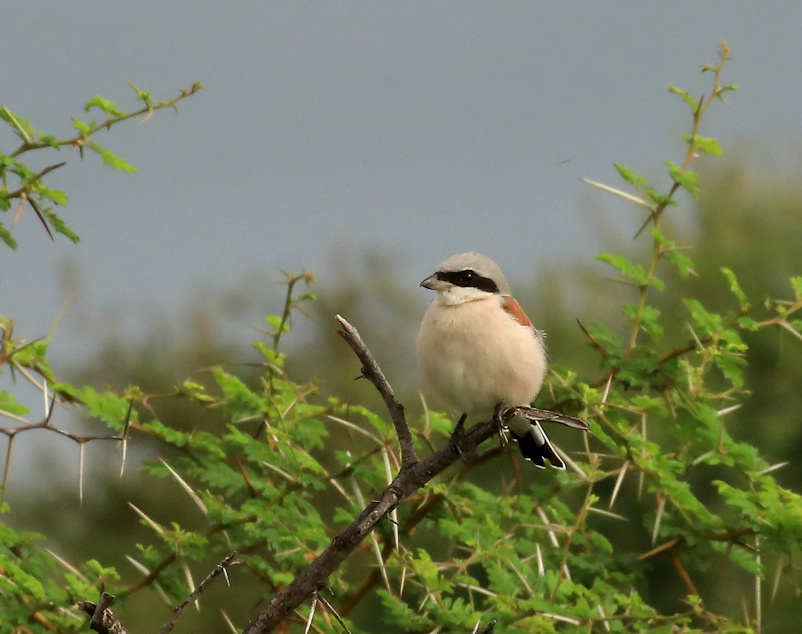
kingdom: Animalia
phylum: Chordata
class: Aves
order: Passeriformes
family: Laniidae
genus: Lanius
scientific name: Lanius collurio
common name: Red-backed shrike
